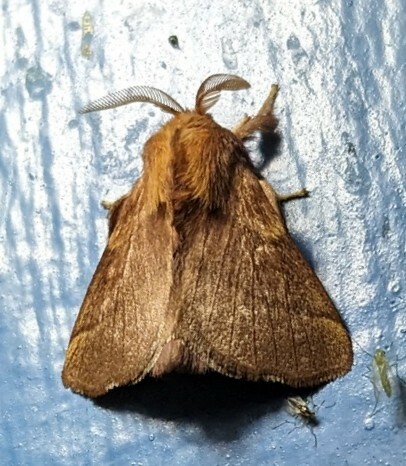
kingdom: Animalia
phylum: Arthropoda
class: Insecta
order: Lepidoptera
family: Lasiocampidae
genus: Malacosoma
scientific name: Malacosoma disstria
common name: Forest tent caterpillar
